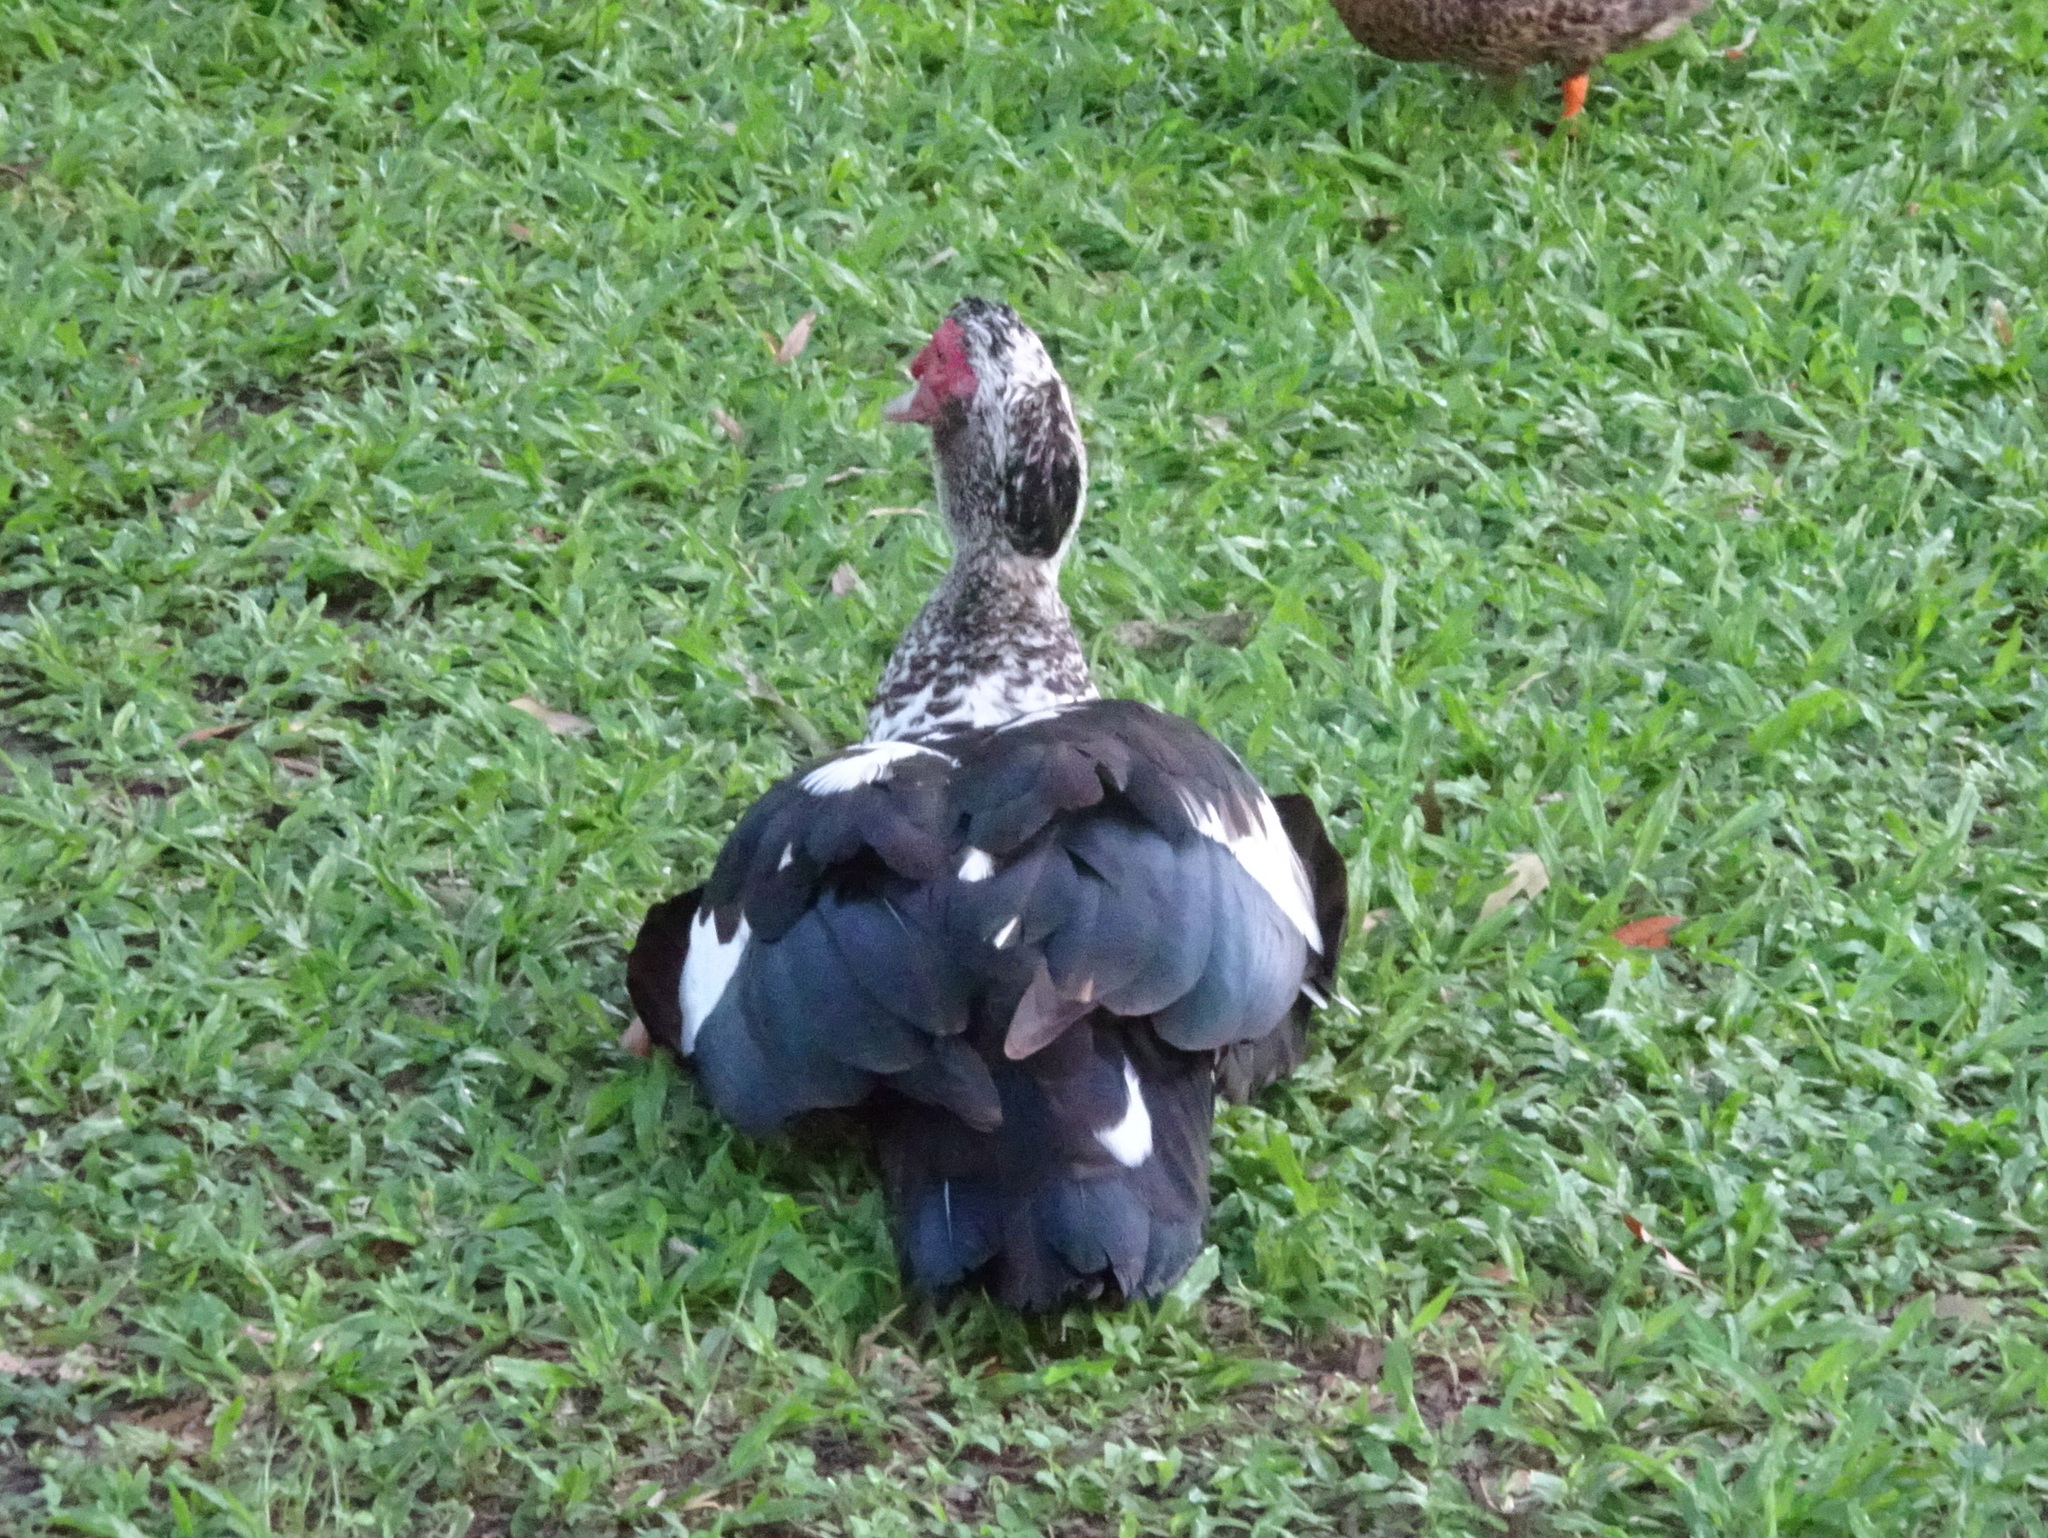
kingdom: Animalia
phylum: Chordata
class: Aves
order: Anseriformes
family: Anatidae
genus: Cairina
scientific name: Cairina moschata
